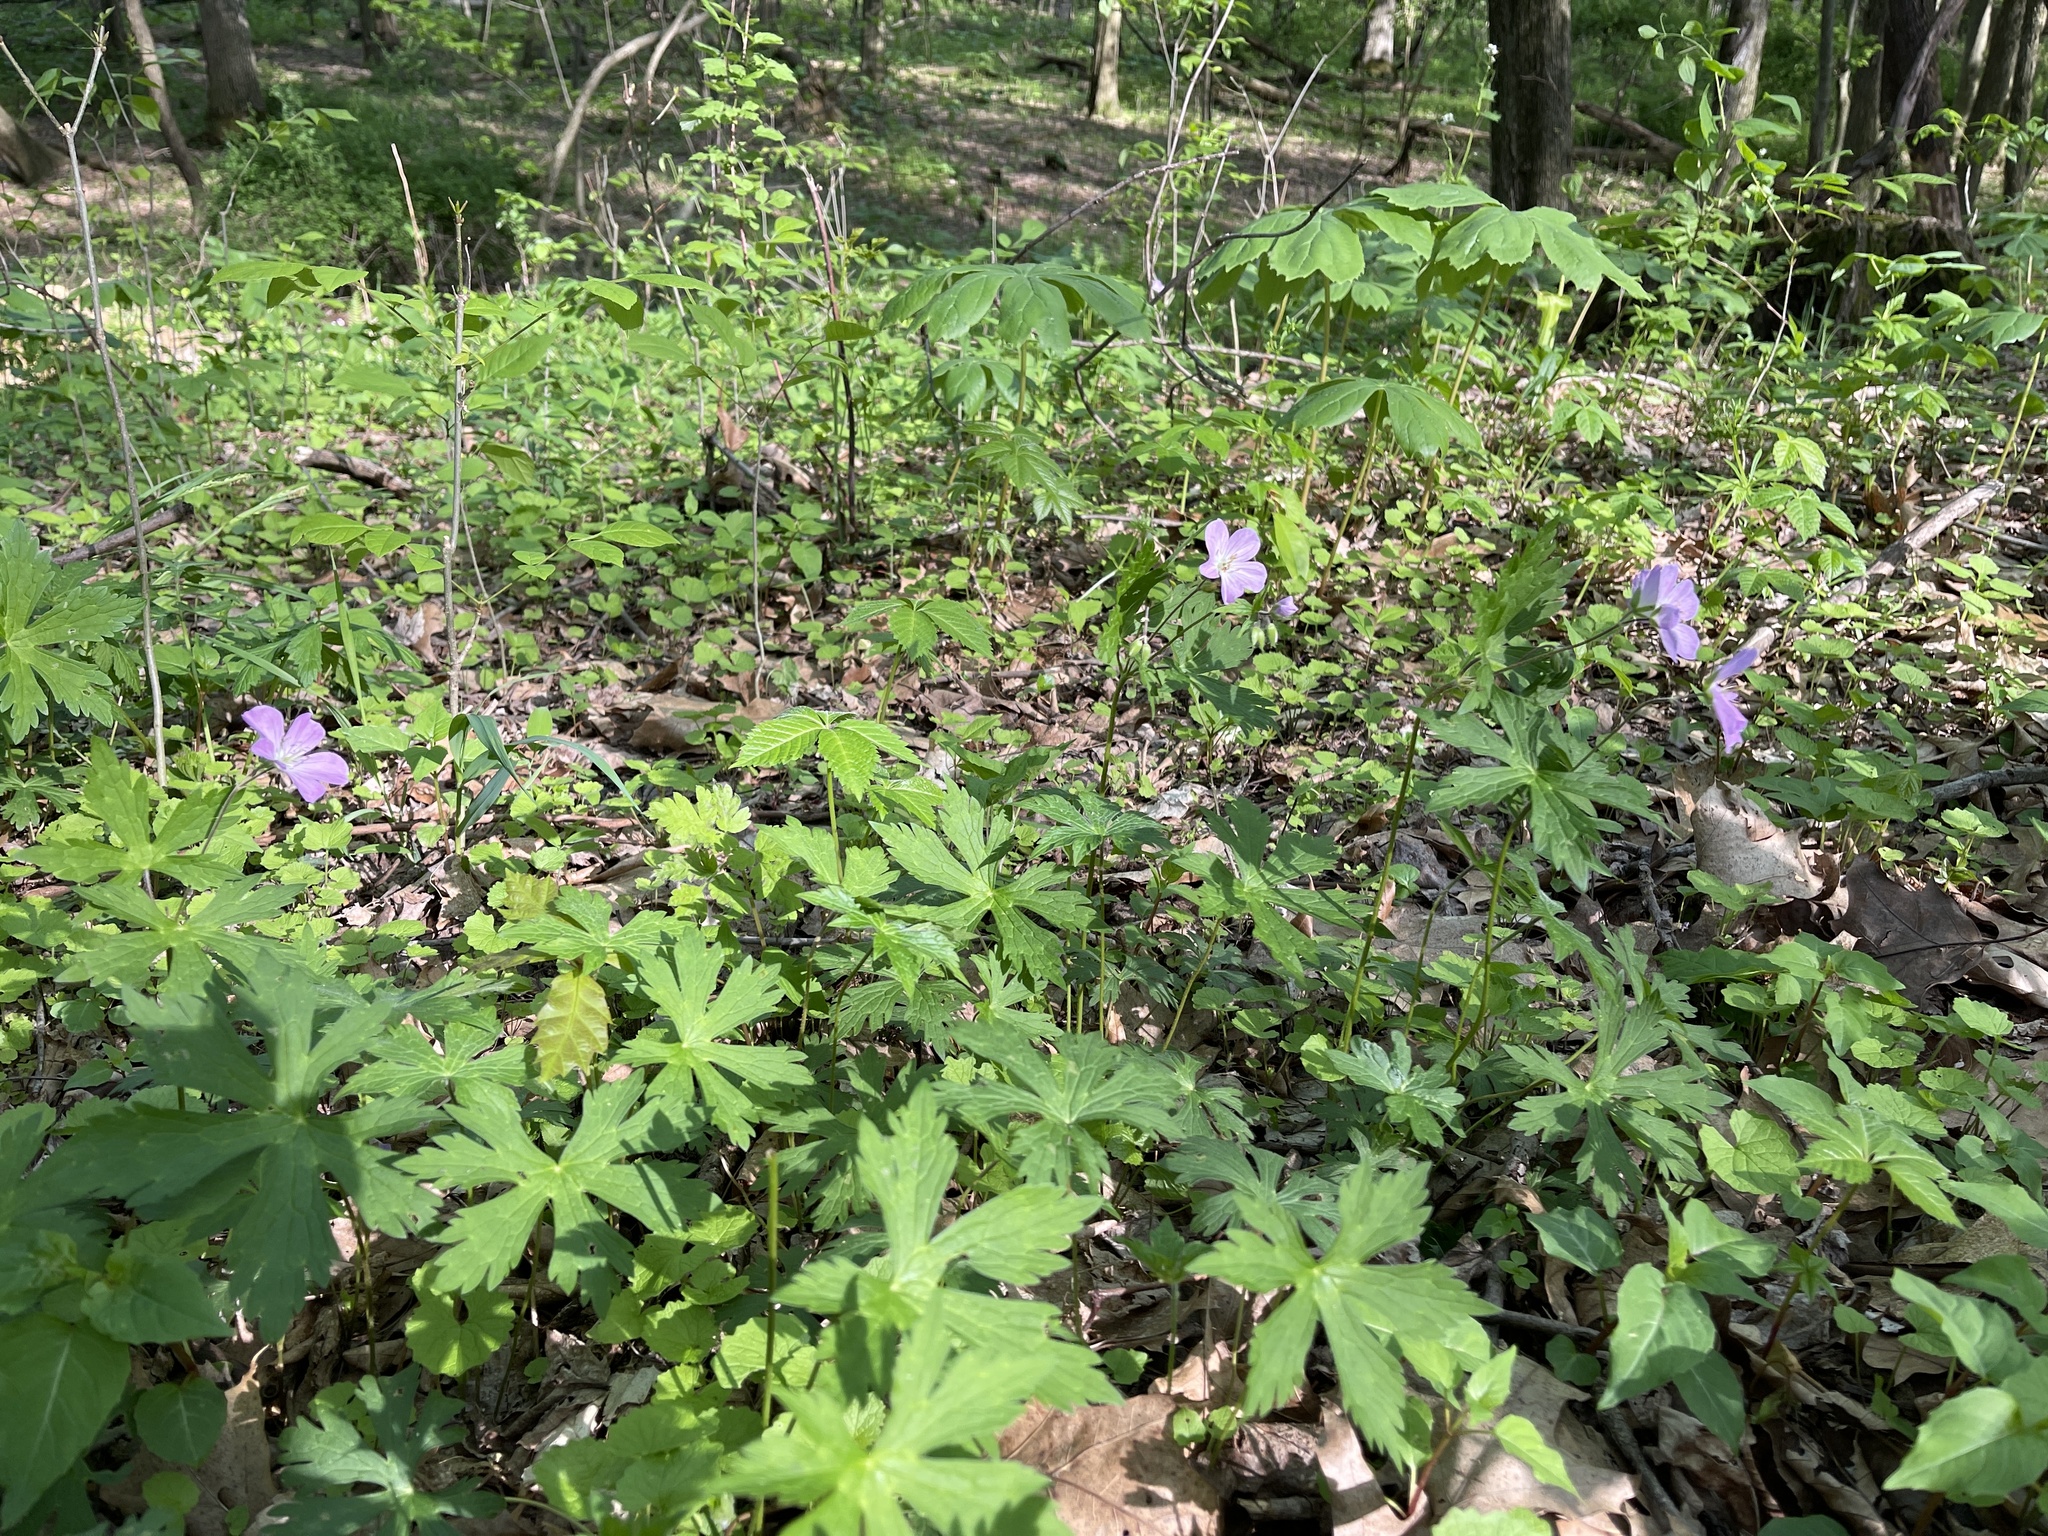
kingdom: Plantae
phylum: Tracheophyta
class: Magnoliopsida
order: Geraniales
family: Geraniaceae
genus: Geranium
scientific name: Geranium maculatum
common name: Spotted geranium
